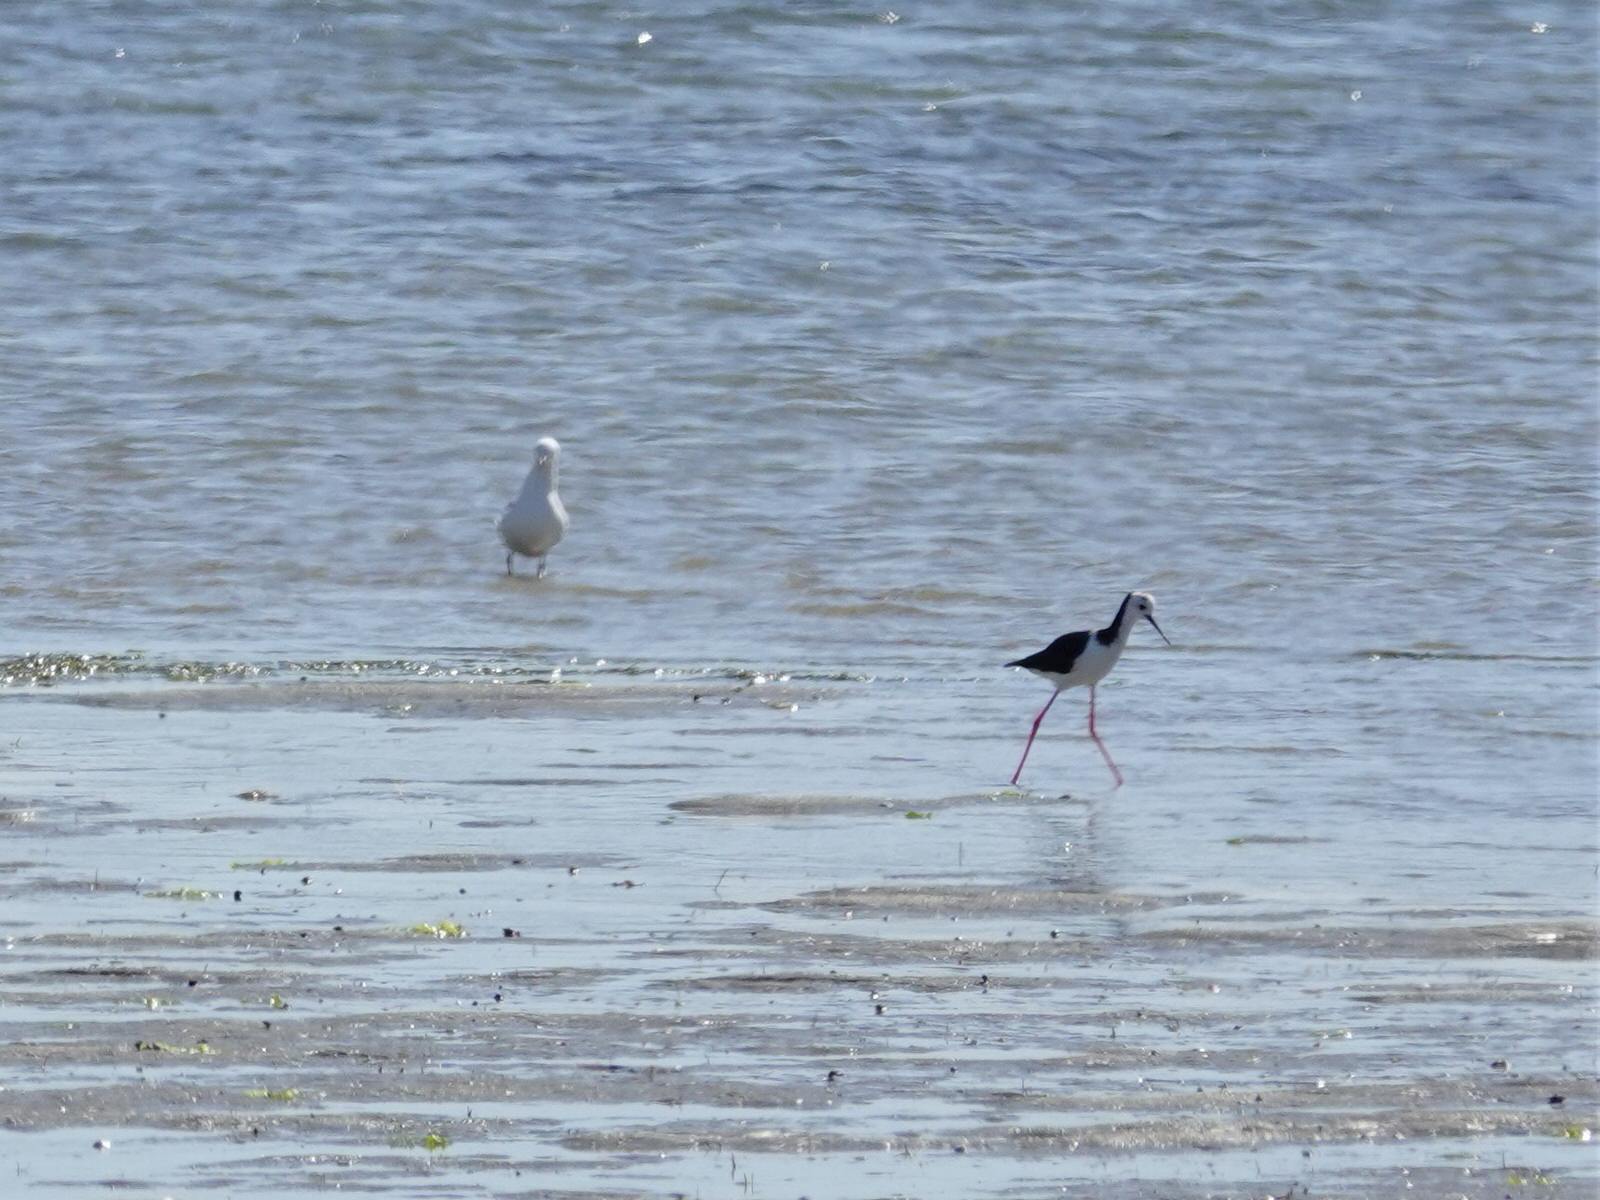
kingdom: Animalia
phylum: Chordata
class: Aves
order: Charadriiformes
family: Recurvirostridae
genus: Himantopus
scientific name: Himantopus leucocephalus
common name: White-headed stilt
